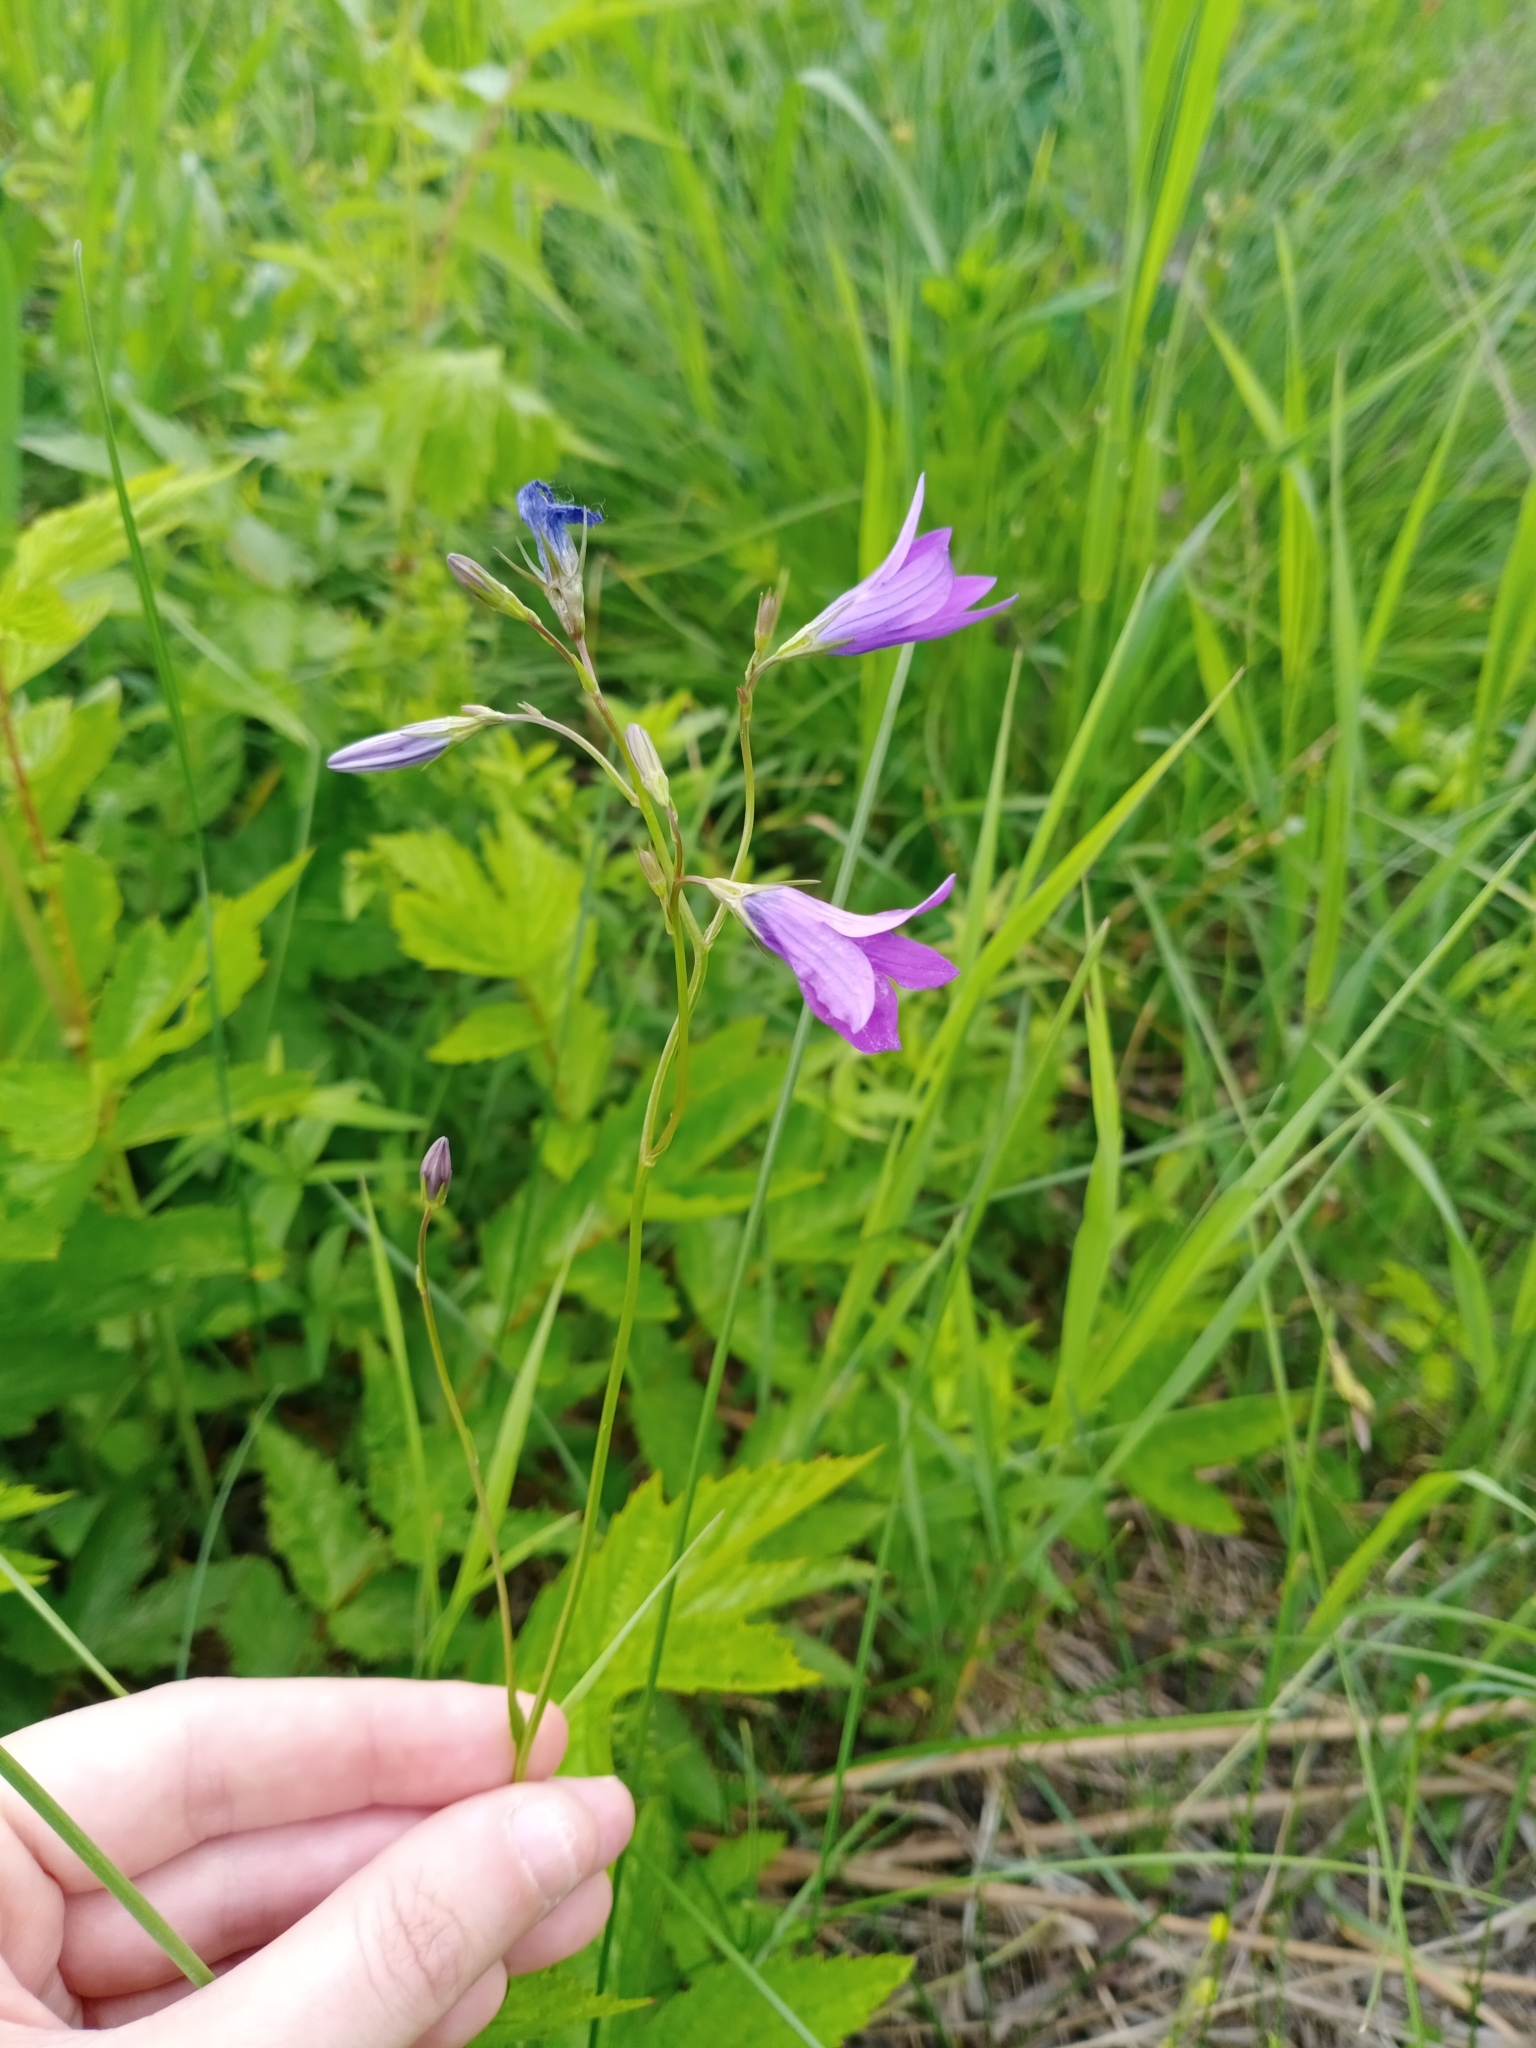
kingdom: Plantae
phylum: Tracheophyta
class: Magnoliopsida
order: Asterales
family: Campanulaceae
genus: Campanula
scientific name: Campanula patula
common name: Spreading bellflower
